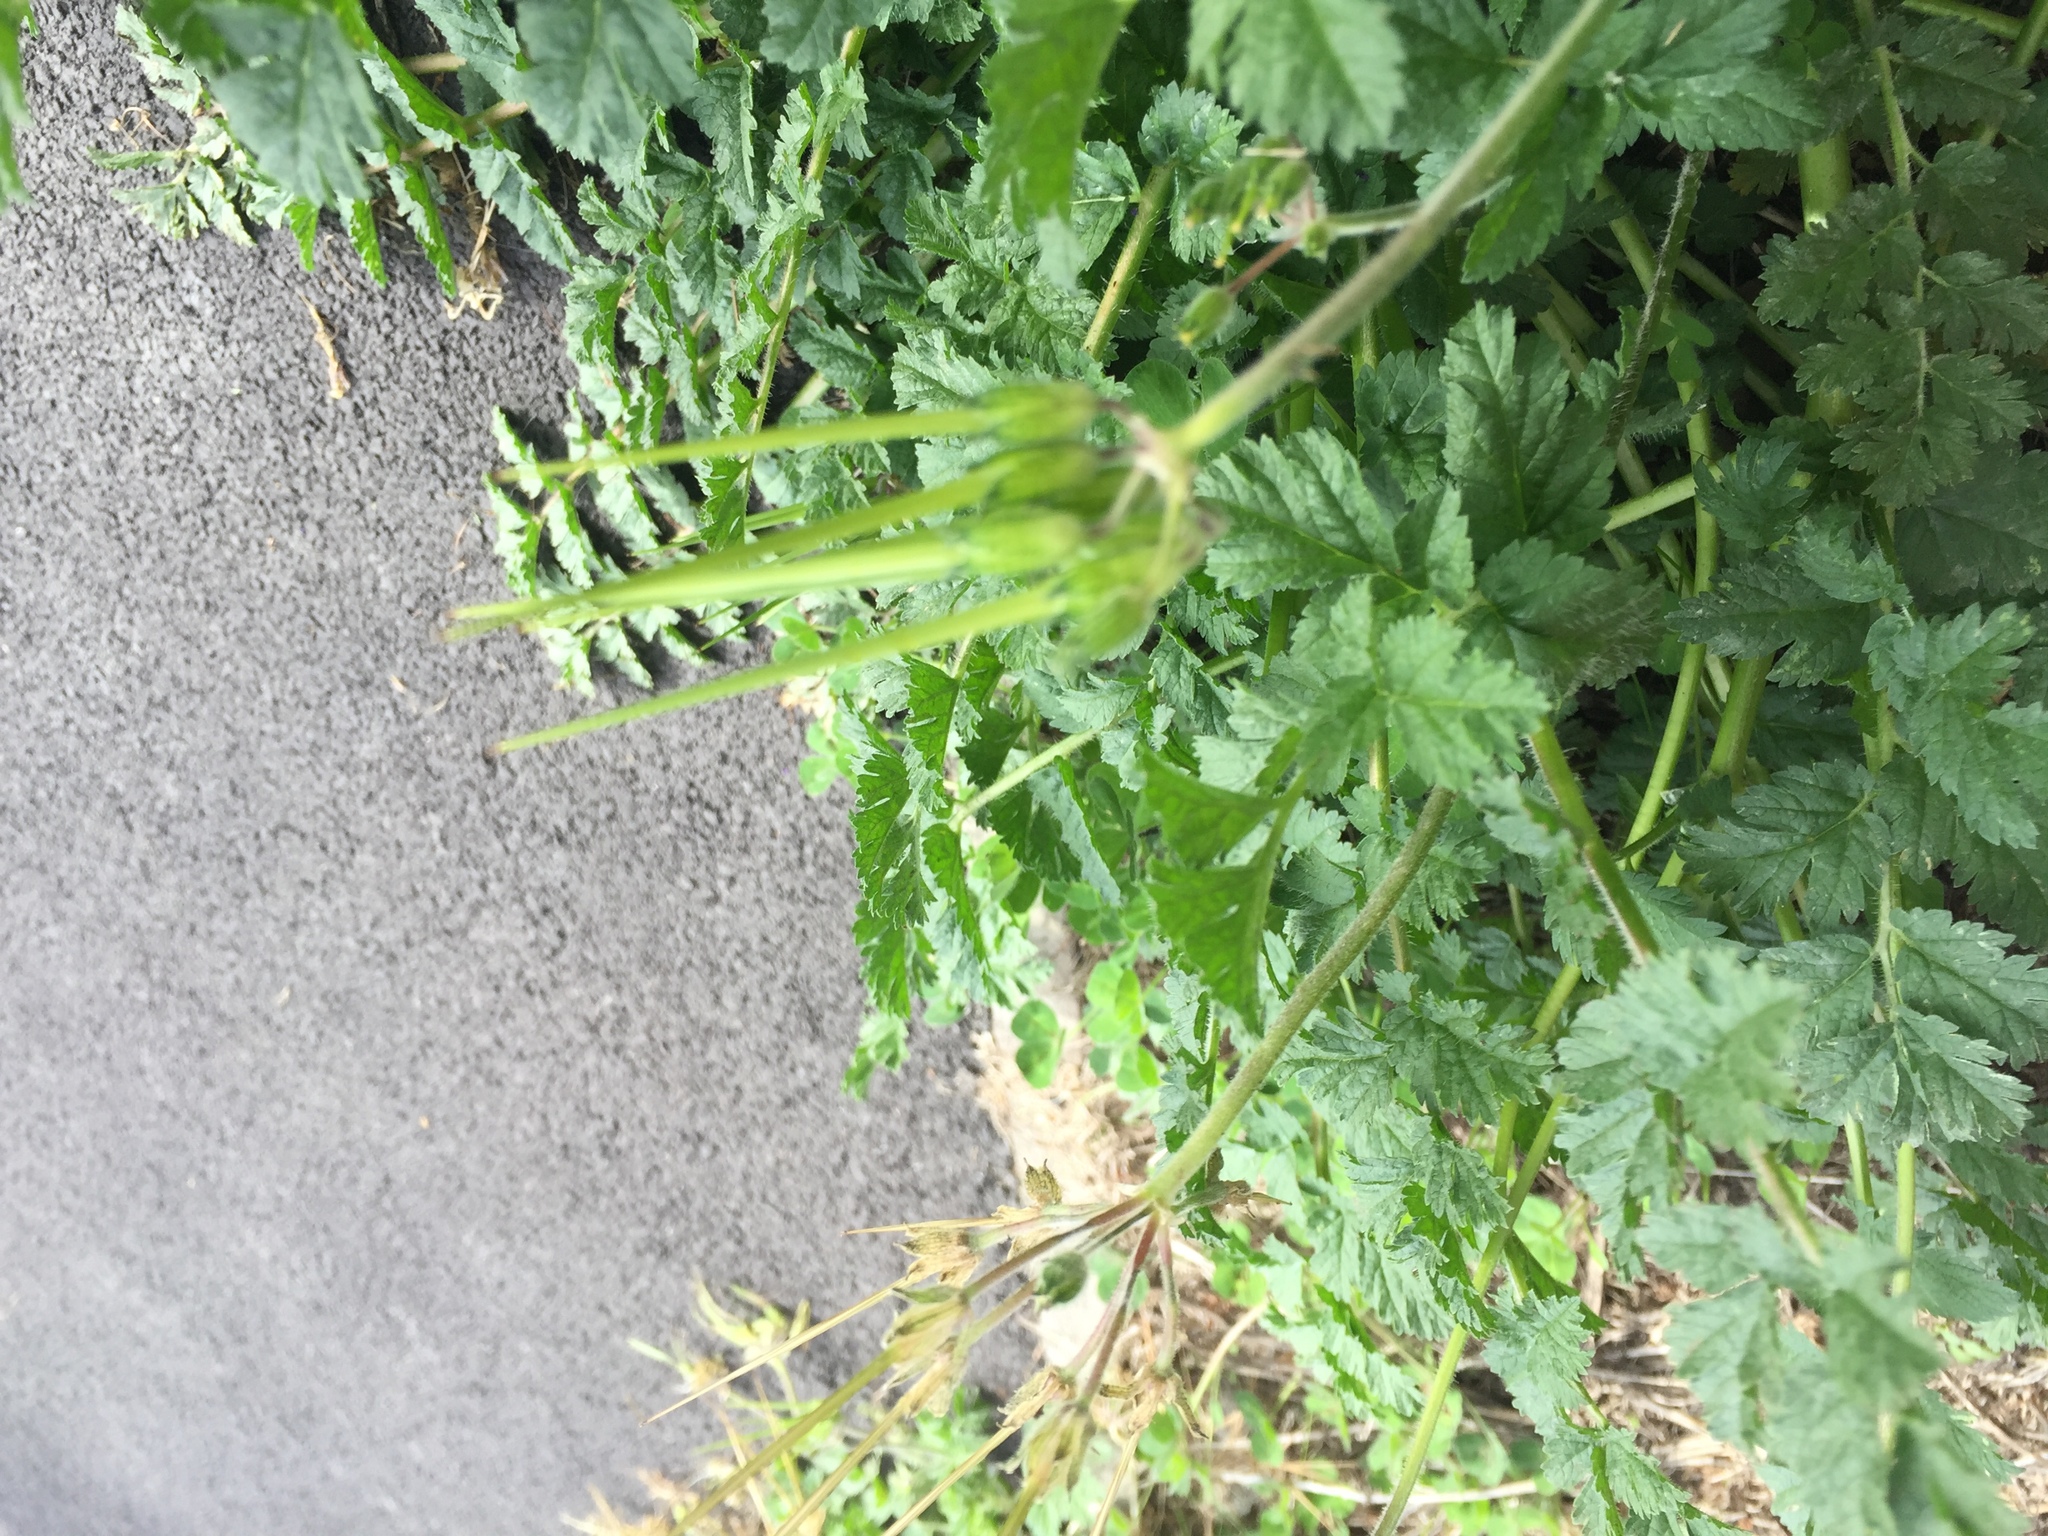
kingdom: Plantae
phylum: Tracheophyta
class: Magnoliopsida
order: Geraniales
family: Geraniaceae
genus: Erodium
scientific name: Erodium moschatum
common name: Musk stork's-bill
